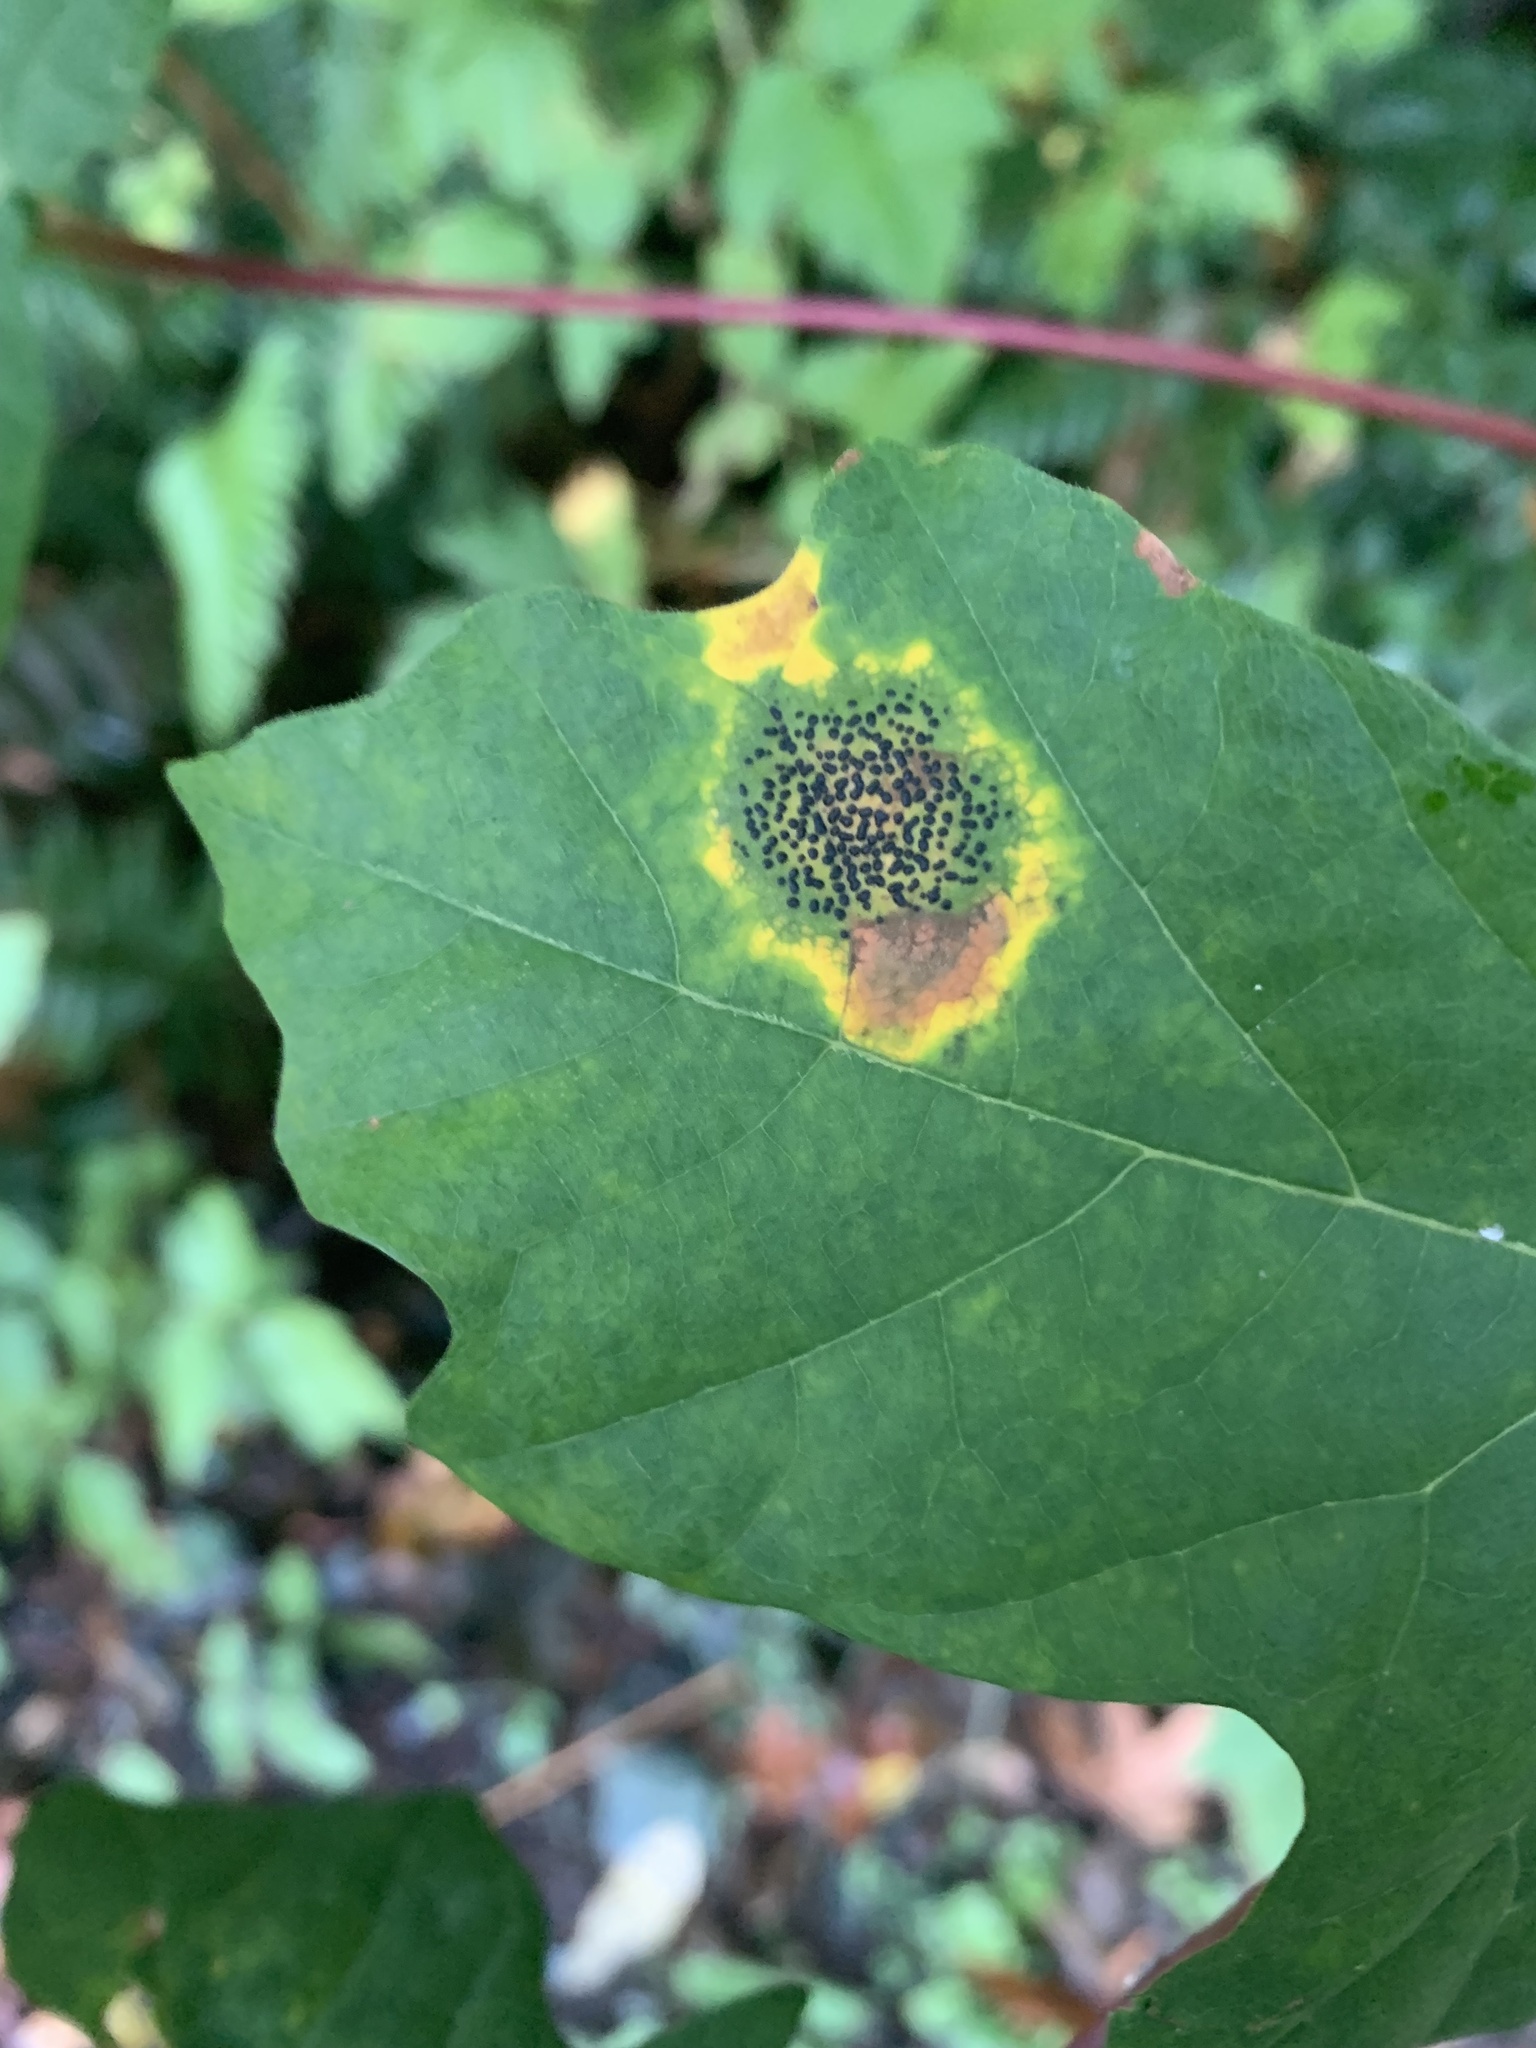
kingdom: Fungi
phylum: Ascomycota
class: Leotiomycetes
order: Rhytismatales
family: Rhytismataceae
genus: Rhytisma
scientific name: Rhytisma punctatum
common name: Speckled tar spot
